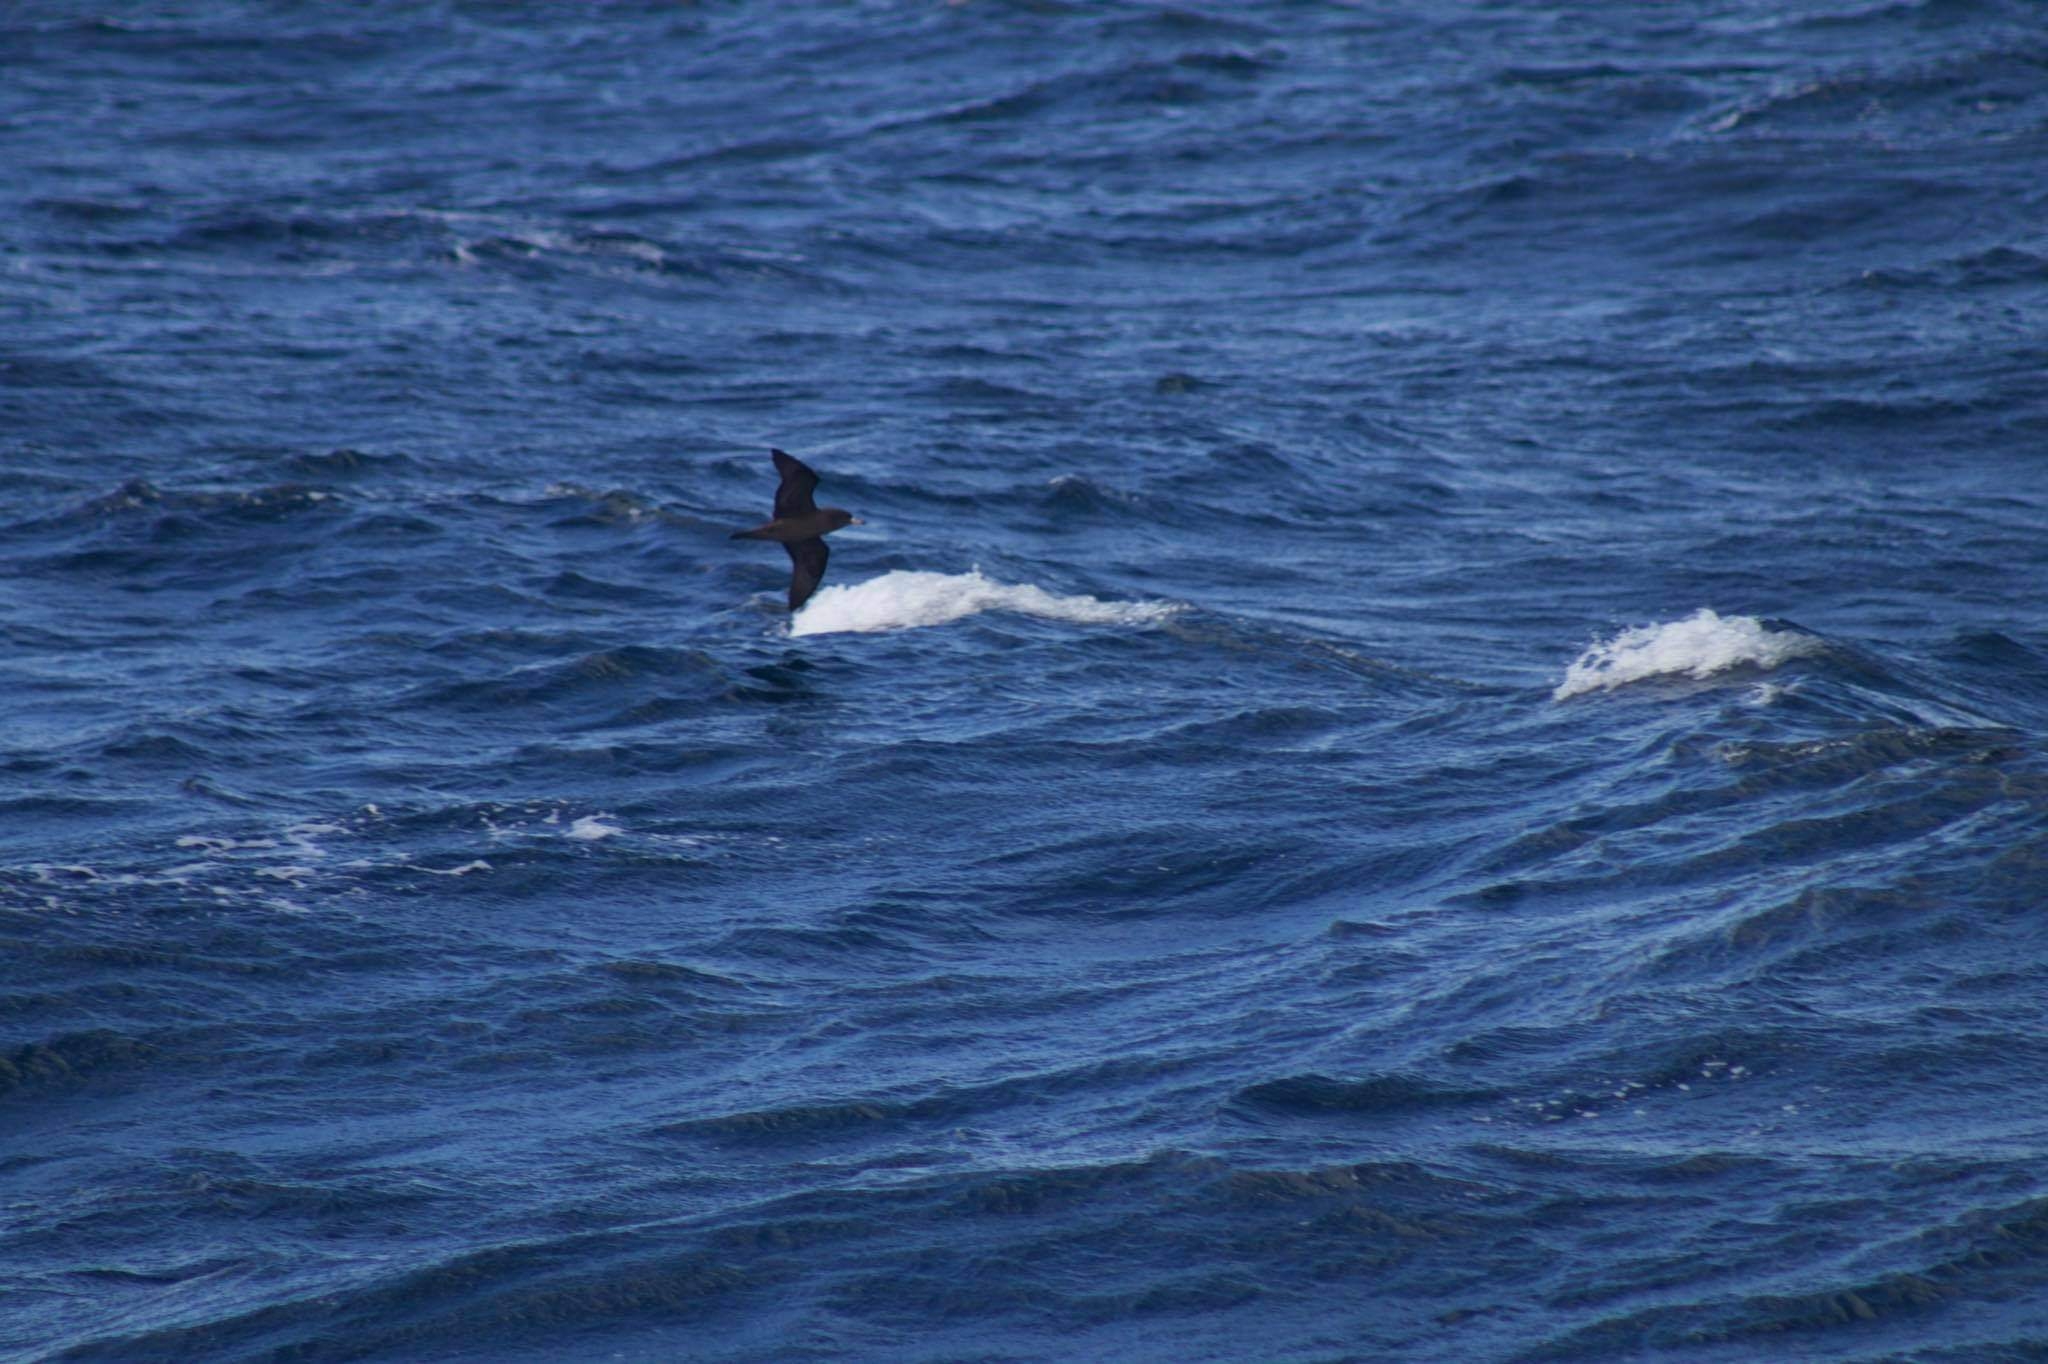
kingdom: Animalia
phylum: Chordata
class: Aves
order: Procellariiformes
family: Procellariidae
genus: Puffinus
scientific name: Puffinus carneipes
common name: Flesh-footed shearwater
